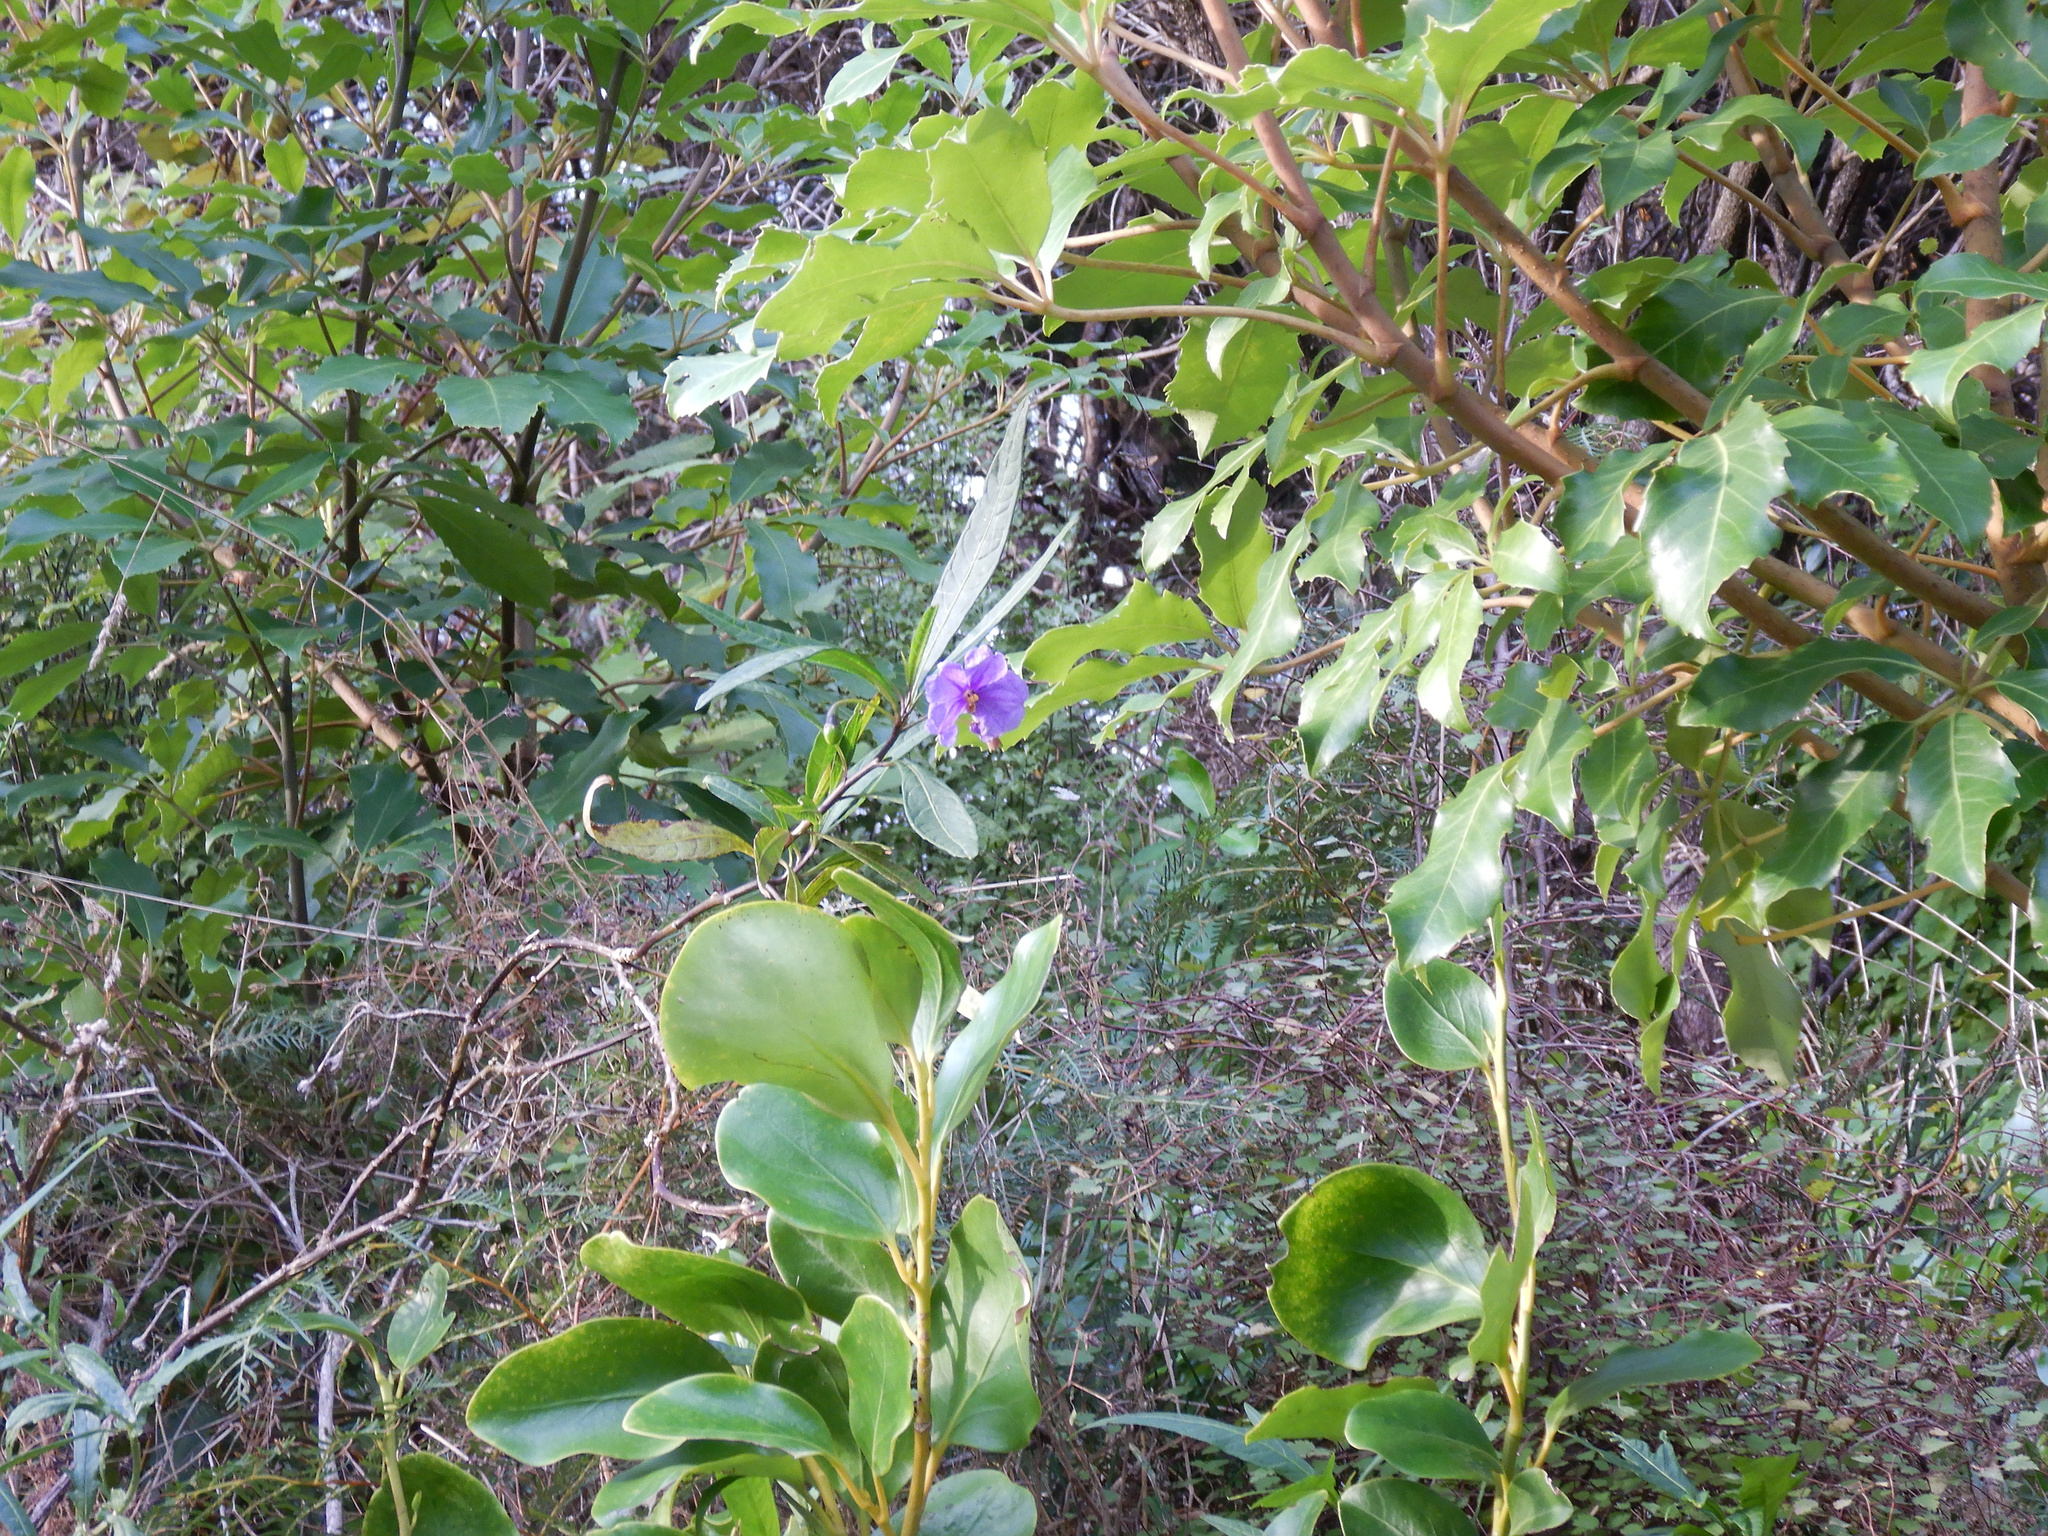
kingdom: Plantae
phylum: Tracheophyta
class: Magnoliopsida
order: Solanales
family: Solanaceae
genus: Solanum
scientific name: Solanum laciniatum
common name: Kangaroo-apple
